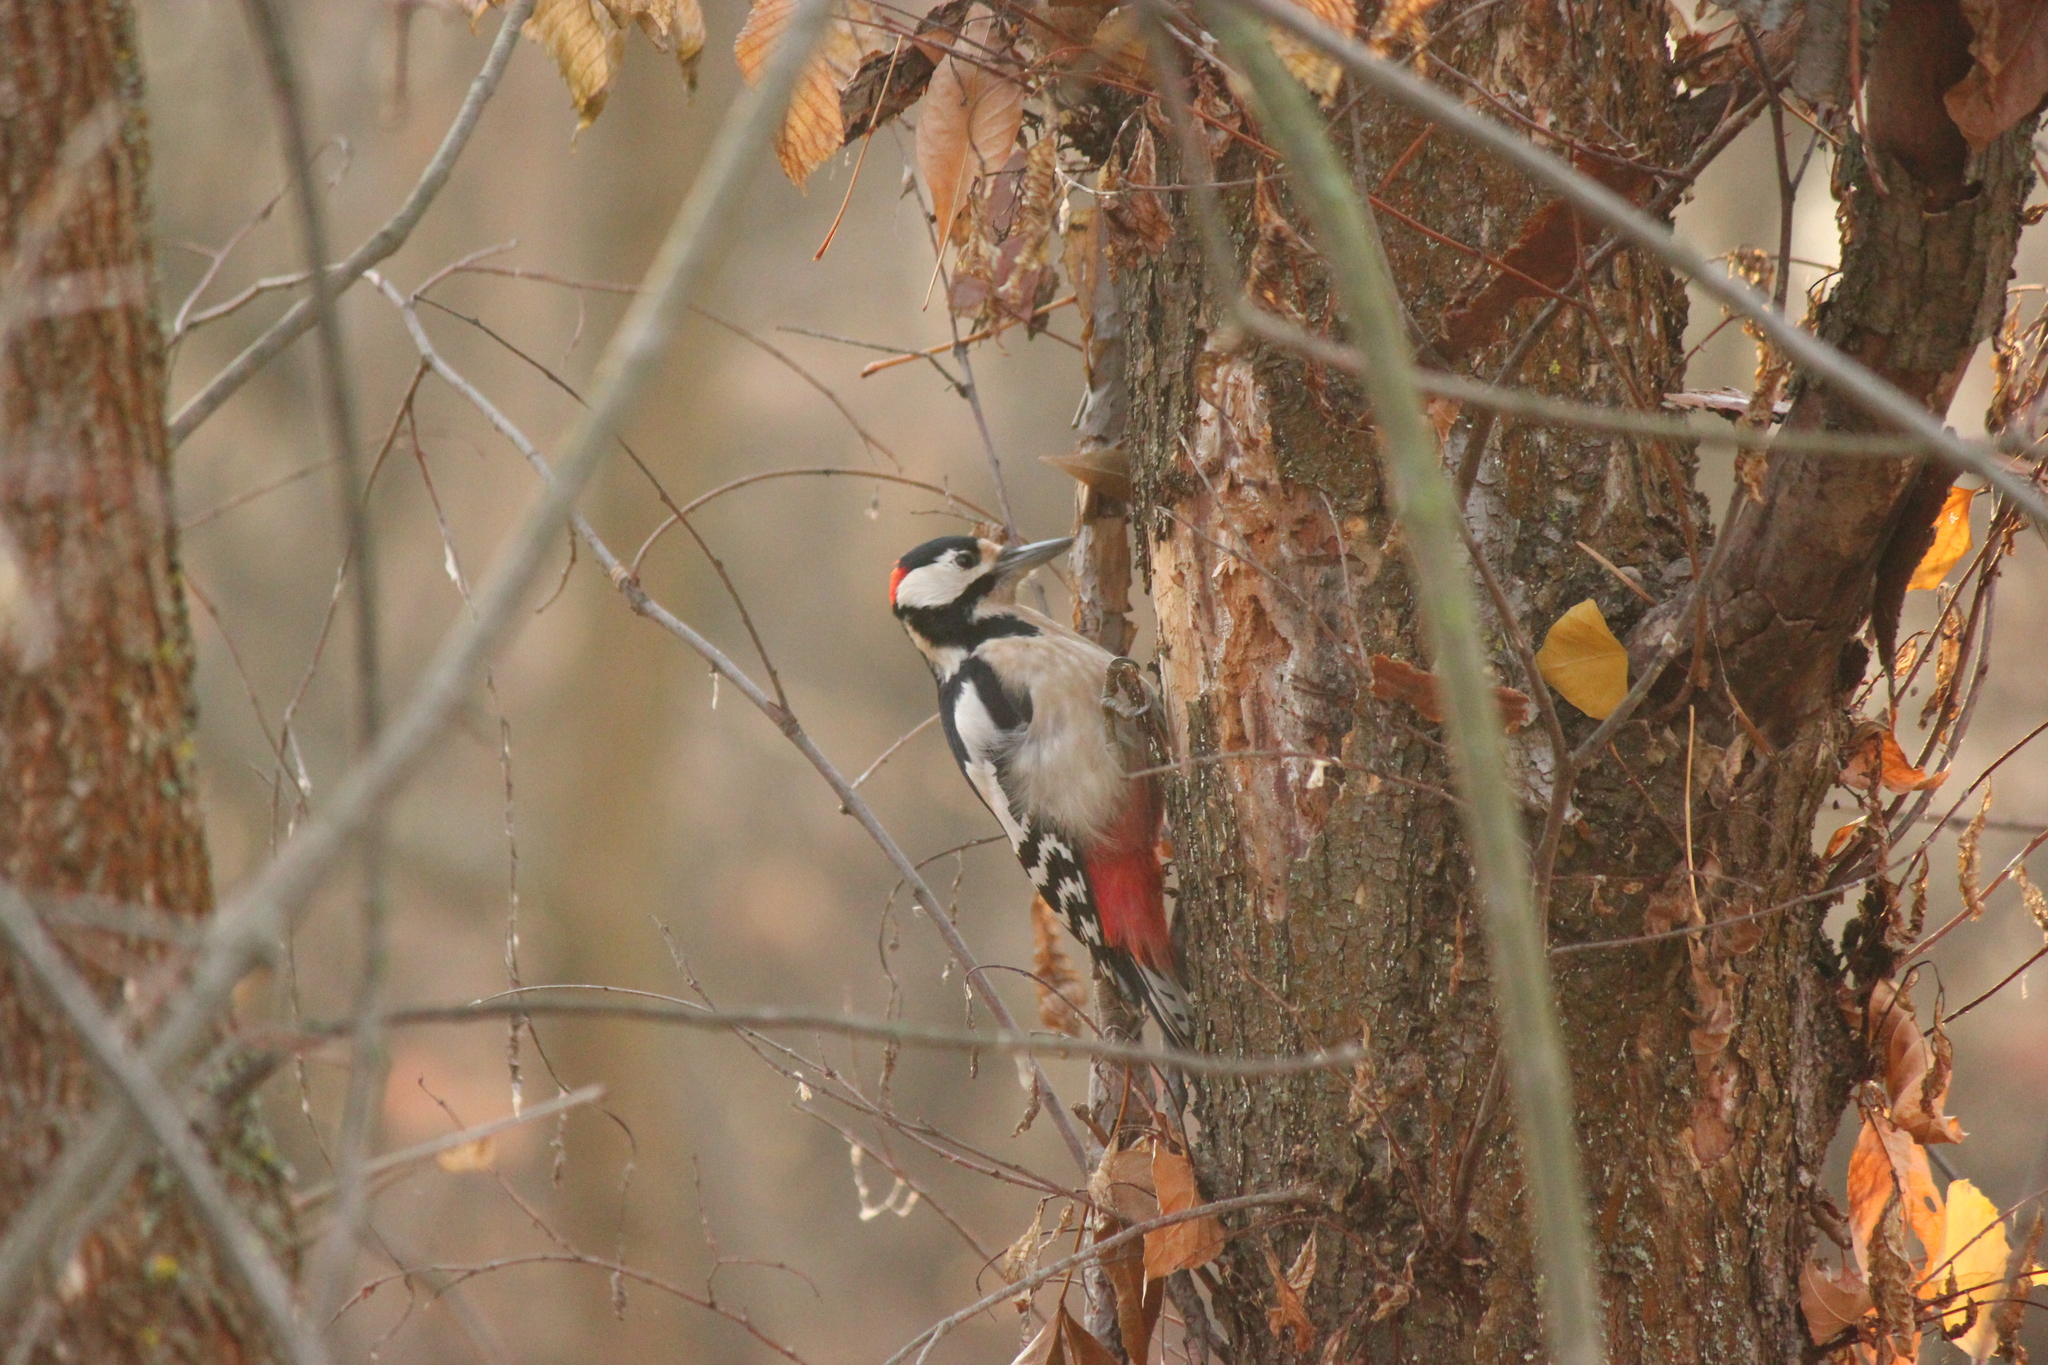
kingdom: Animalia
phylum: Chordata
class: Aves
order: Piciformes
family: Picidae
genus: Dendrocopos
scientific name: Dendrocopos major
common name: Great spotted woodpecker
